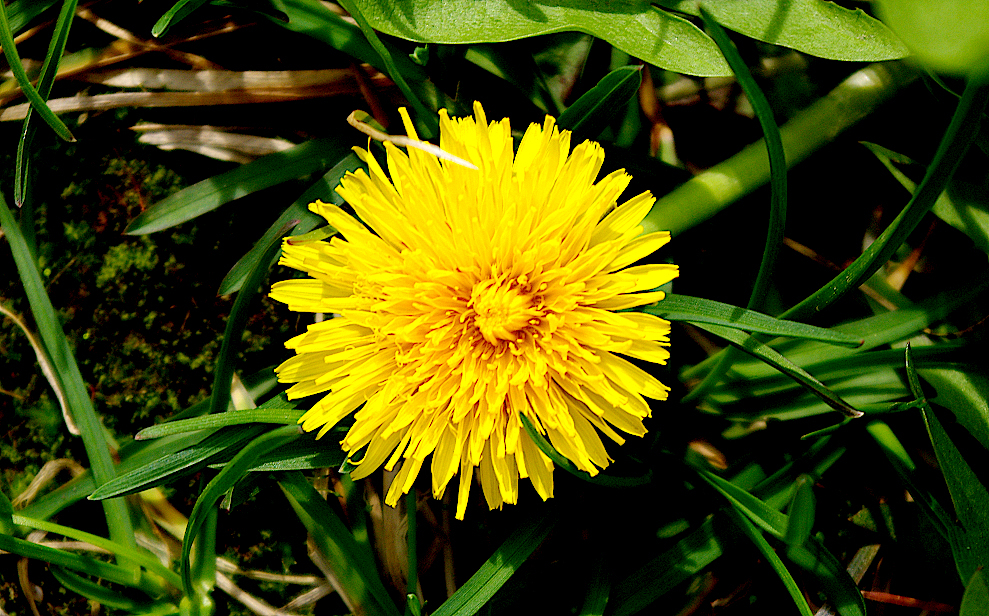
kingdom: Plantae
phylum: Tracheophyta
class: Magnoliopsida
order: Asterales
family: Asteraceae
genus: Taraxacum
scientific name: Taraxacum officinale
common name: Common dandelion
